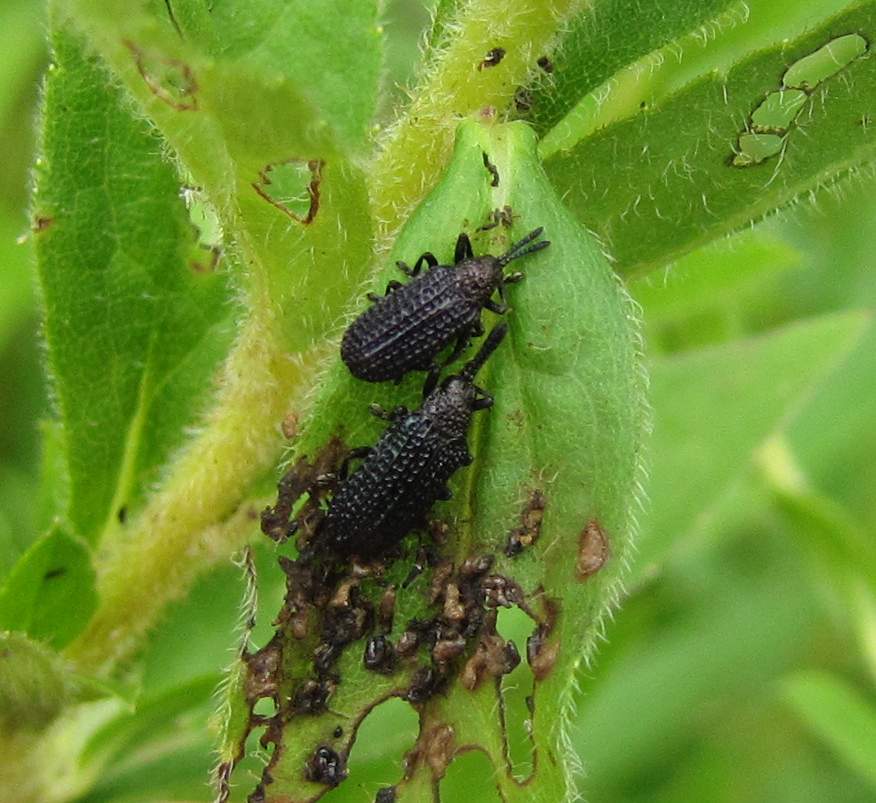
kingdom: Animalia
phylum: Arthropoda
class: Insecta
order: Coleoptera
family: Chrysomelidae
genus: Microrhopala
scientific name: Microrhopala excavata
